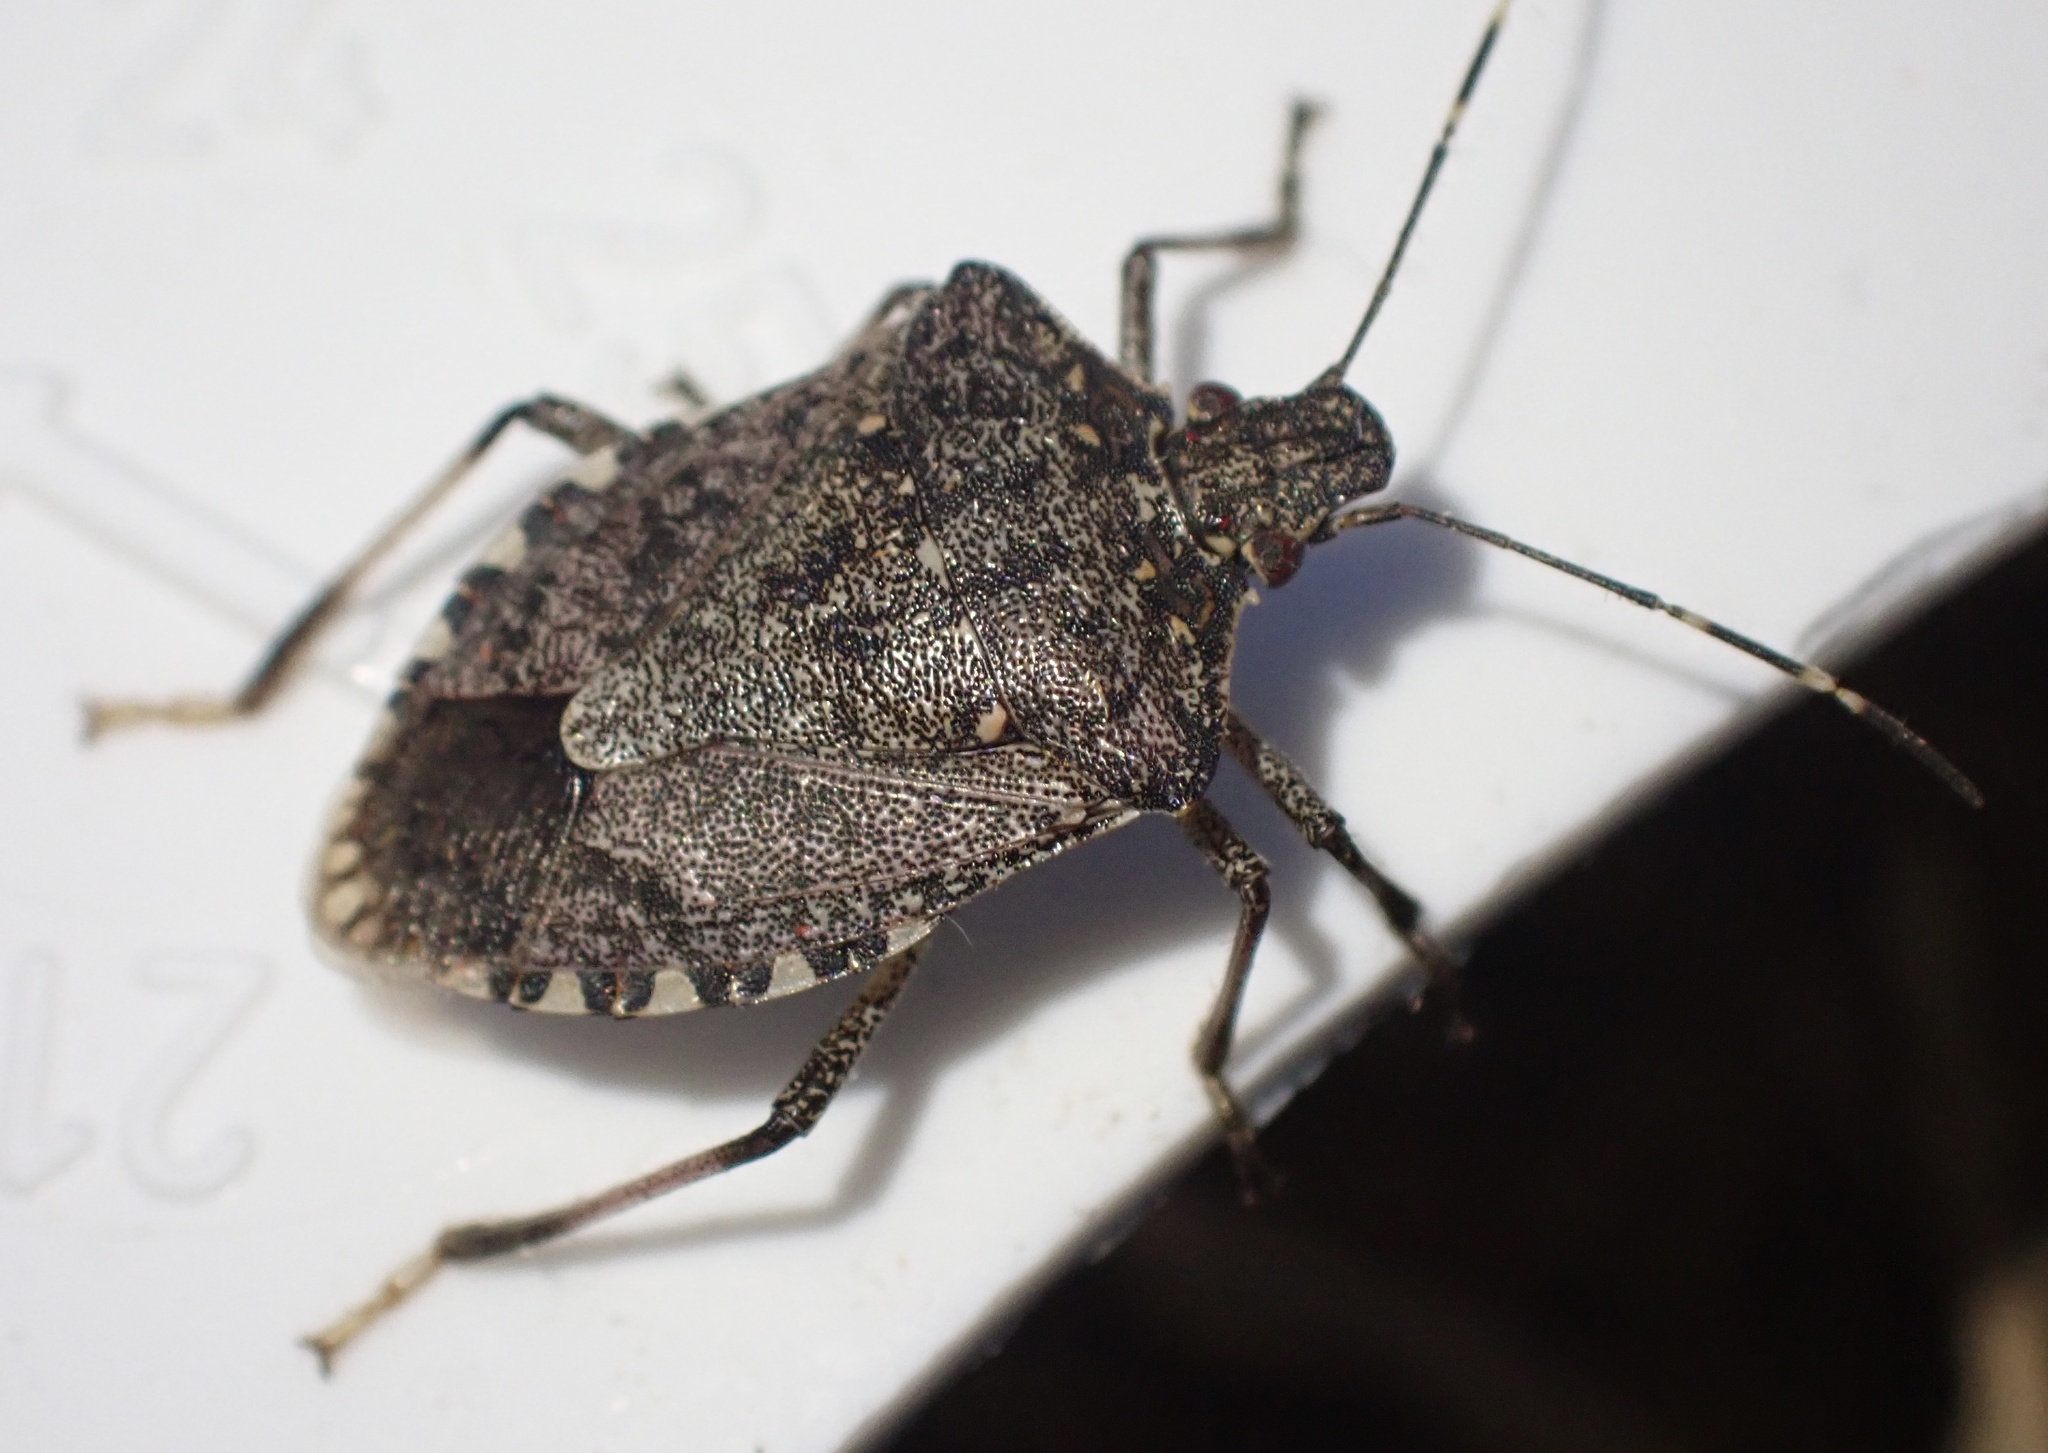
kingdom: Animalia
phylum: Arthropoda
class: Insecta
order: Hemiptera
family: Pentatomidae
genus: Halyomorpha
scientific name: Halyomorpha halys
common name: Brown marmorated stink bug
